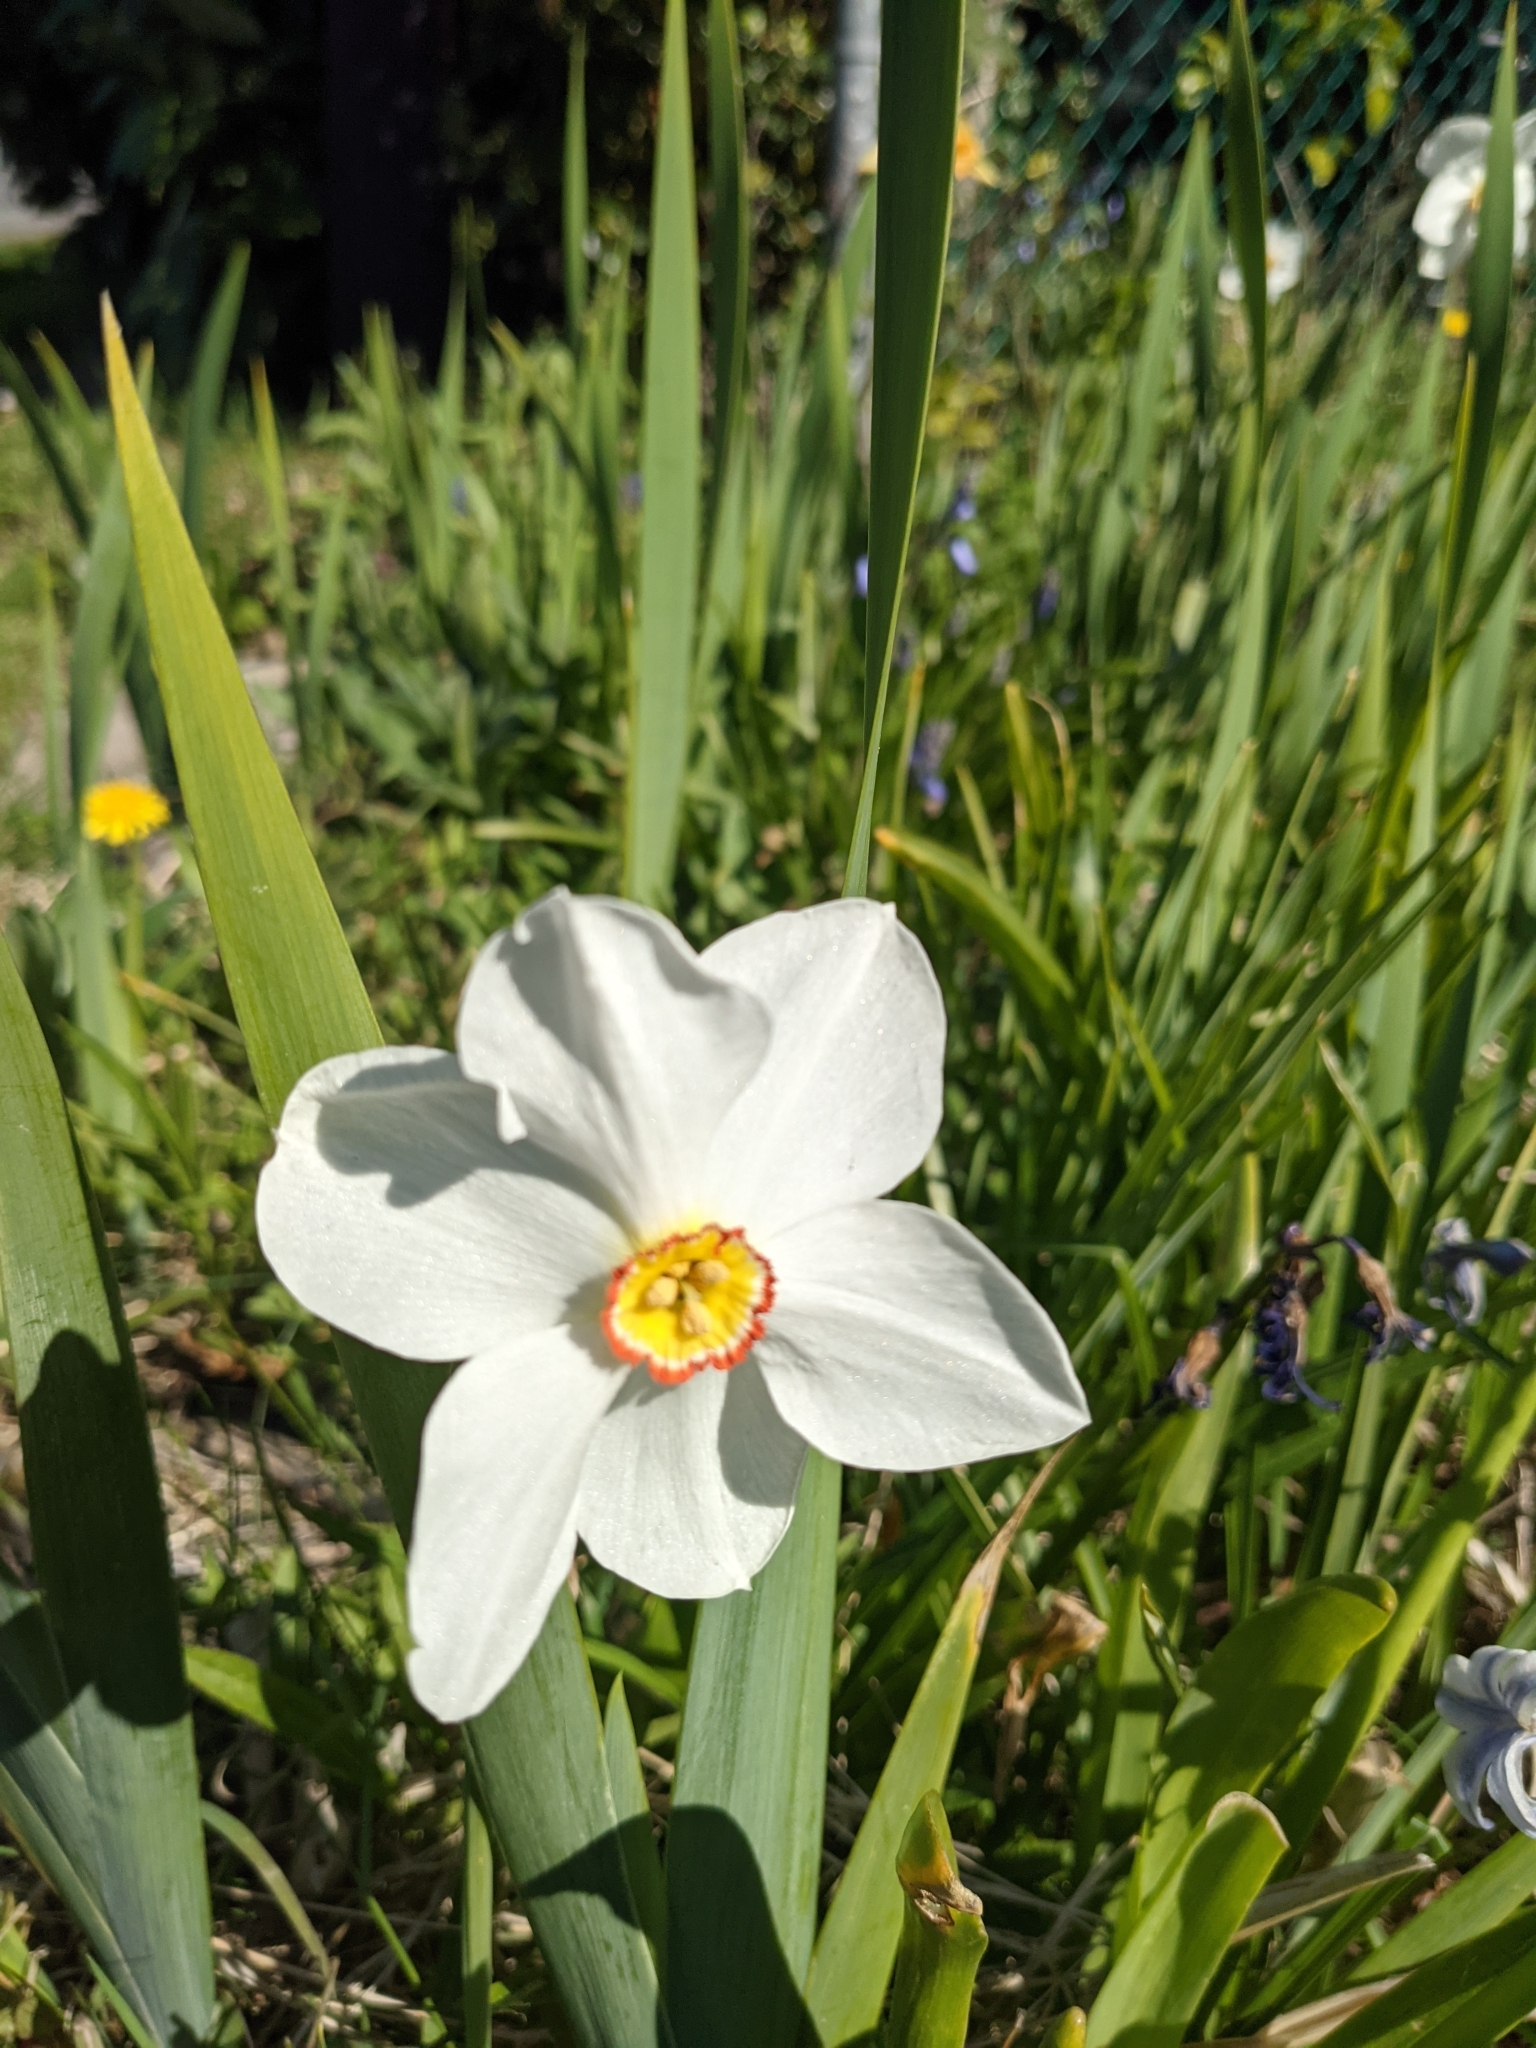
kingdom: Plantae
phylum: Tracheophyta
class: Liliopsida
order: Asparagales
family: Amaryllidaceae
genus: Narcissus
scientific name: Narcissus poeticus
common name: Pheasant's-eye daffodil
